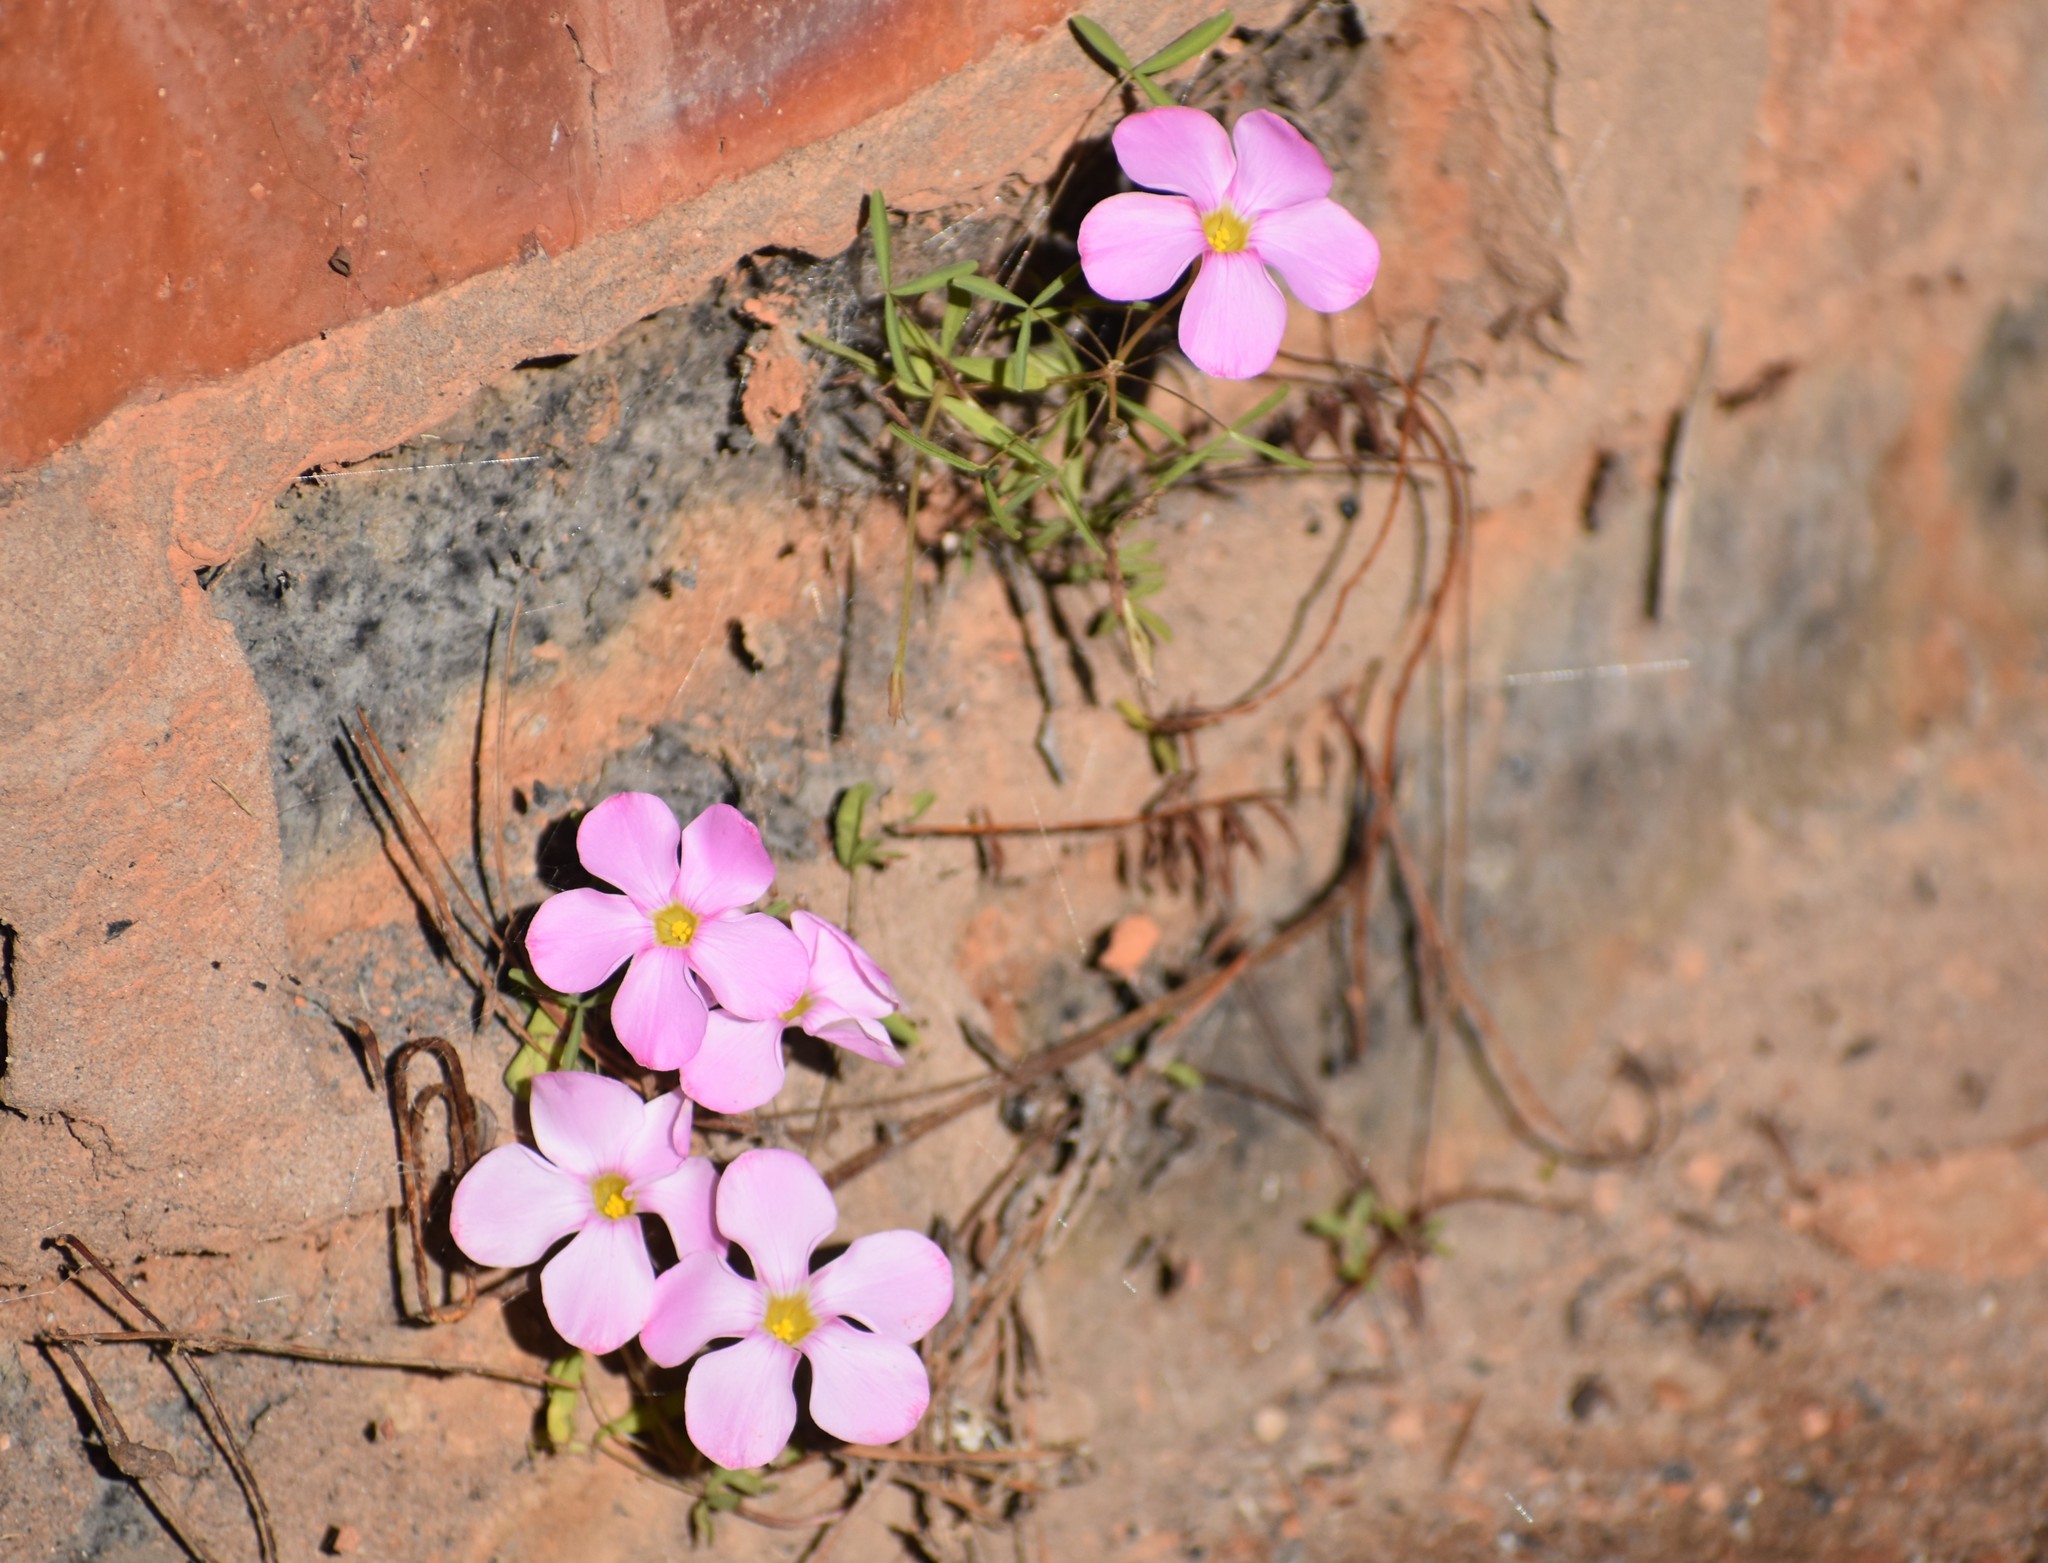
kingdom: Plantae
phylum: Tracheophyta
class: Magnoliopsida
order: Oxalidales
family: Oxalidaceae
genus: Oxalis
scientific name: Oxalis ciliaris
